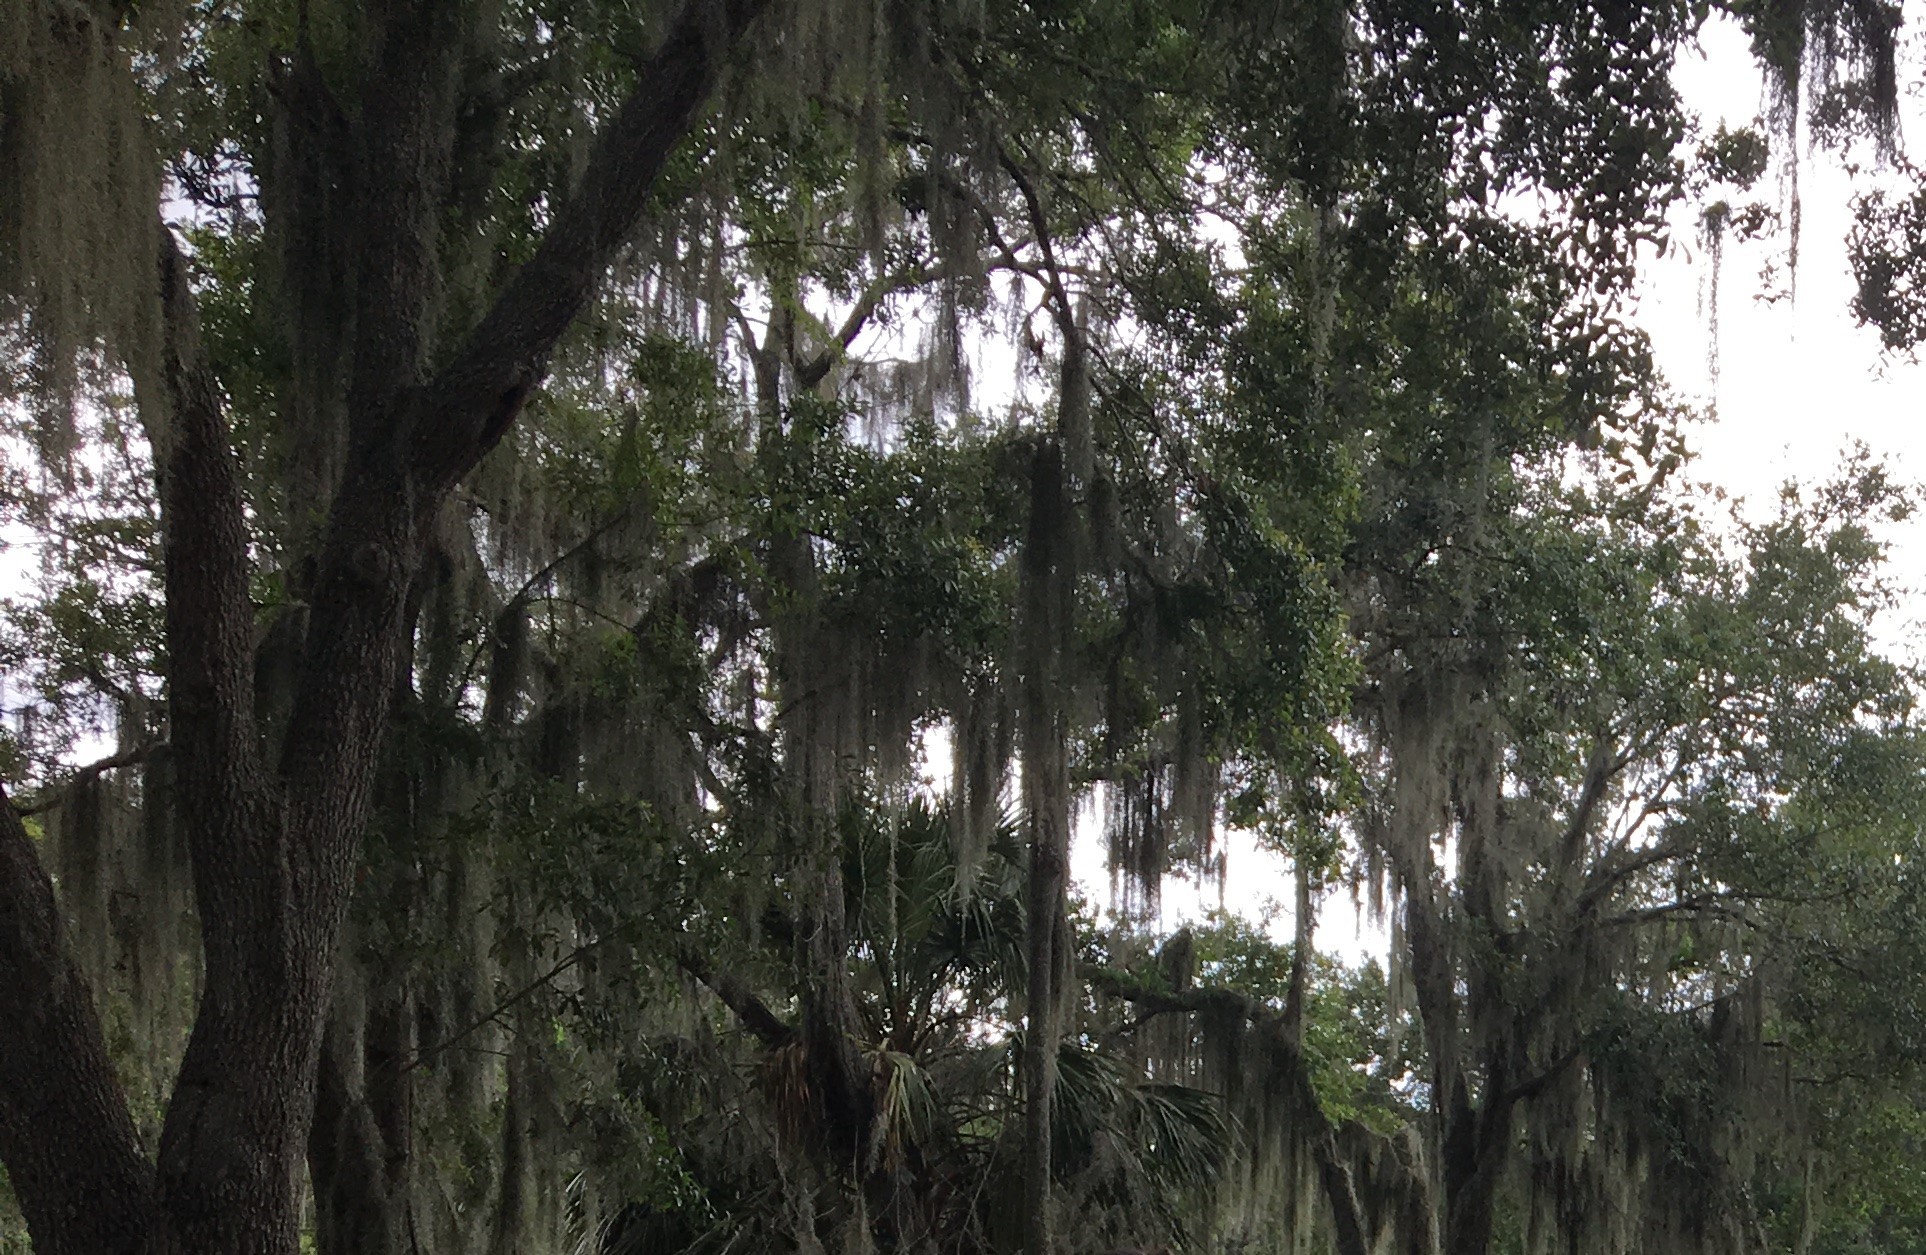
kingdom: Plantae
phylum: Tracheophyta
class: Liliopsida
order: Poales
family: Bromeliaceae
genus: Tillandsia
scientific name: Tillandsia usneoides
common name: Spanish moss
